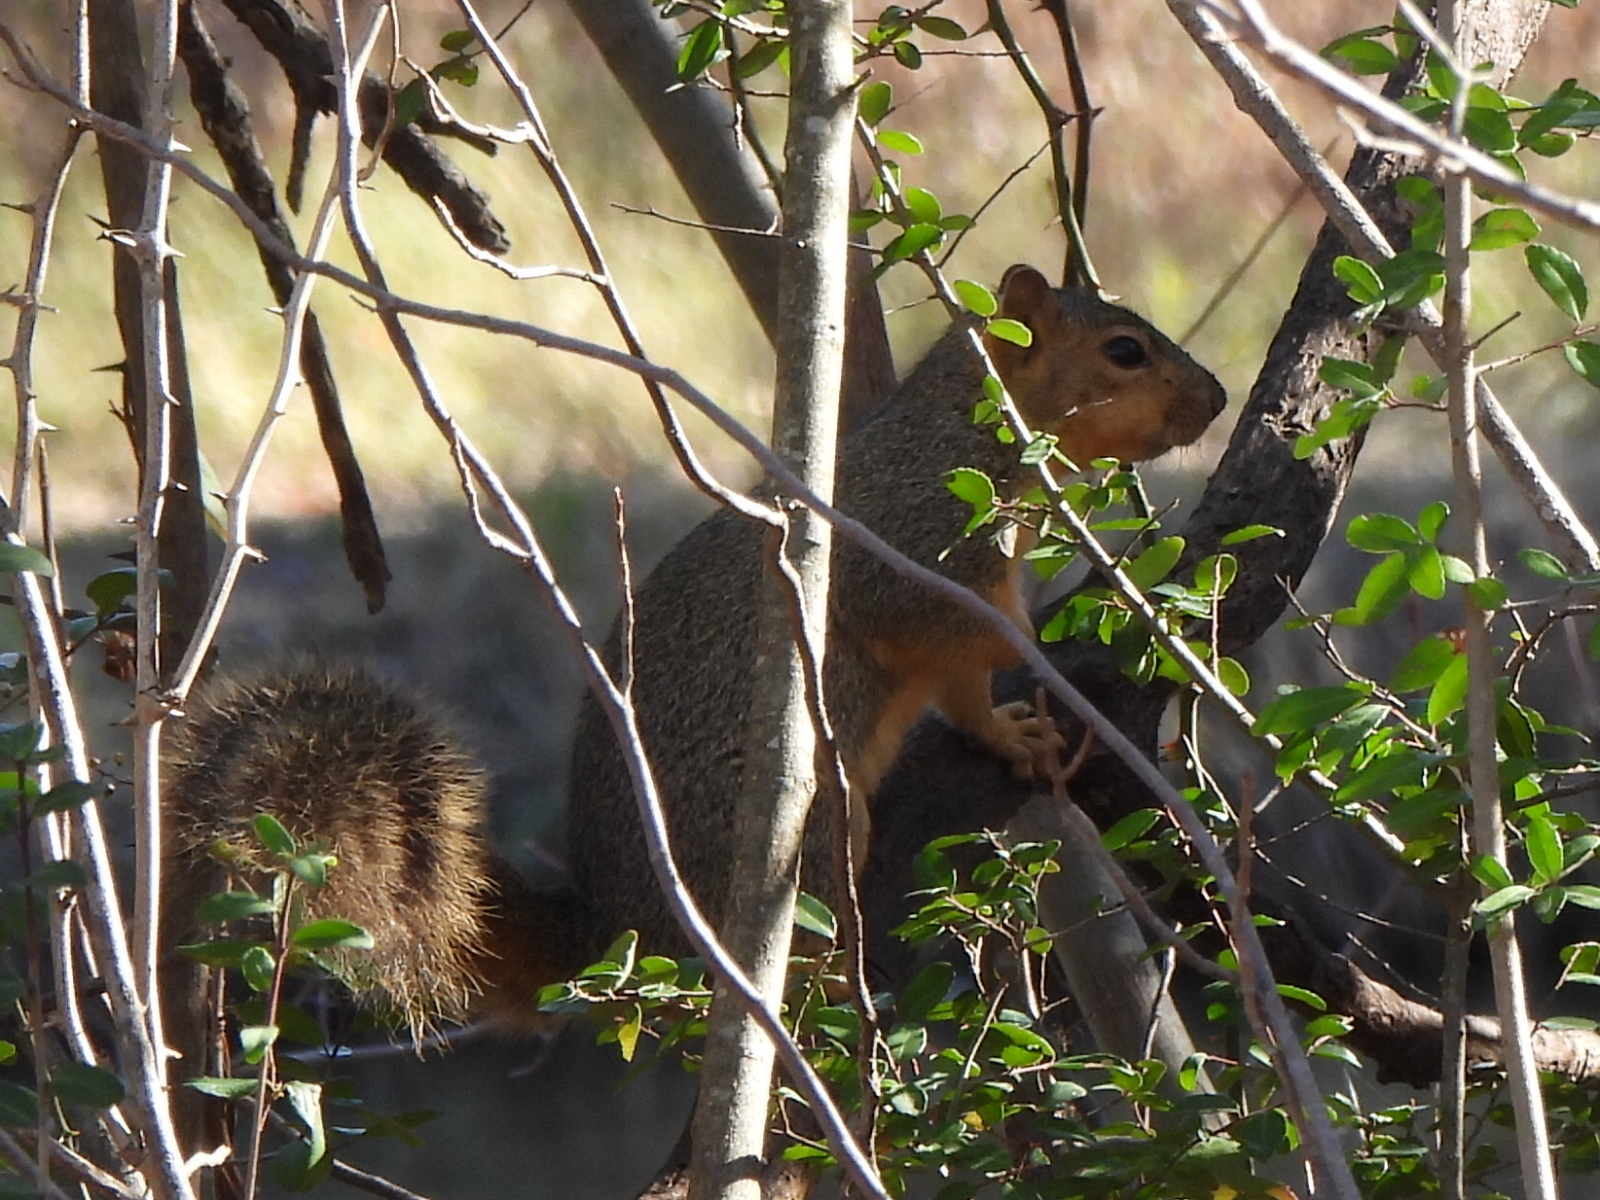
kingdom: Animalia
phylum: Chordata
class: Mammalia
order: Rodentia
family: Sciuridae
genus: Sciurus
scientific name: Sciurus niger
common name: Fox squirrel
